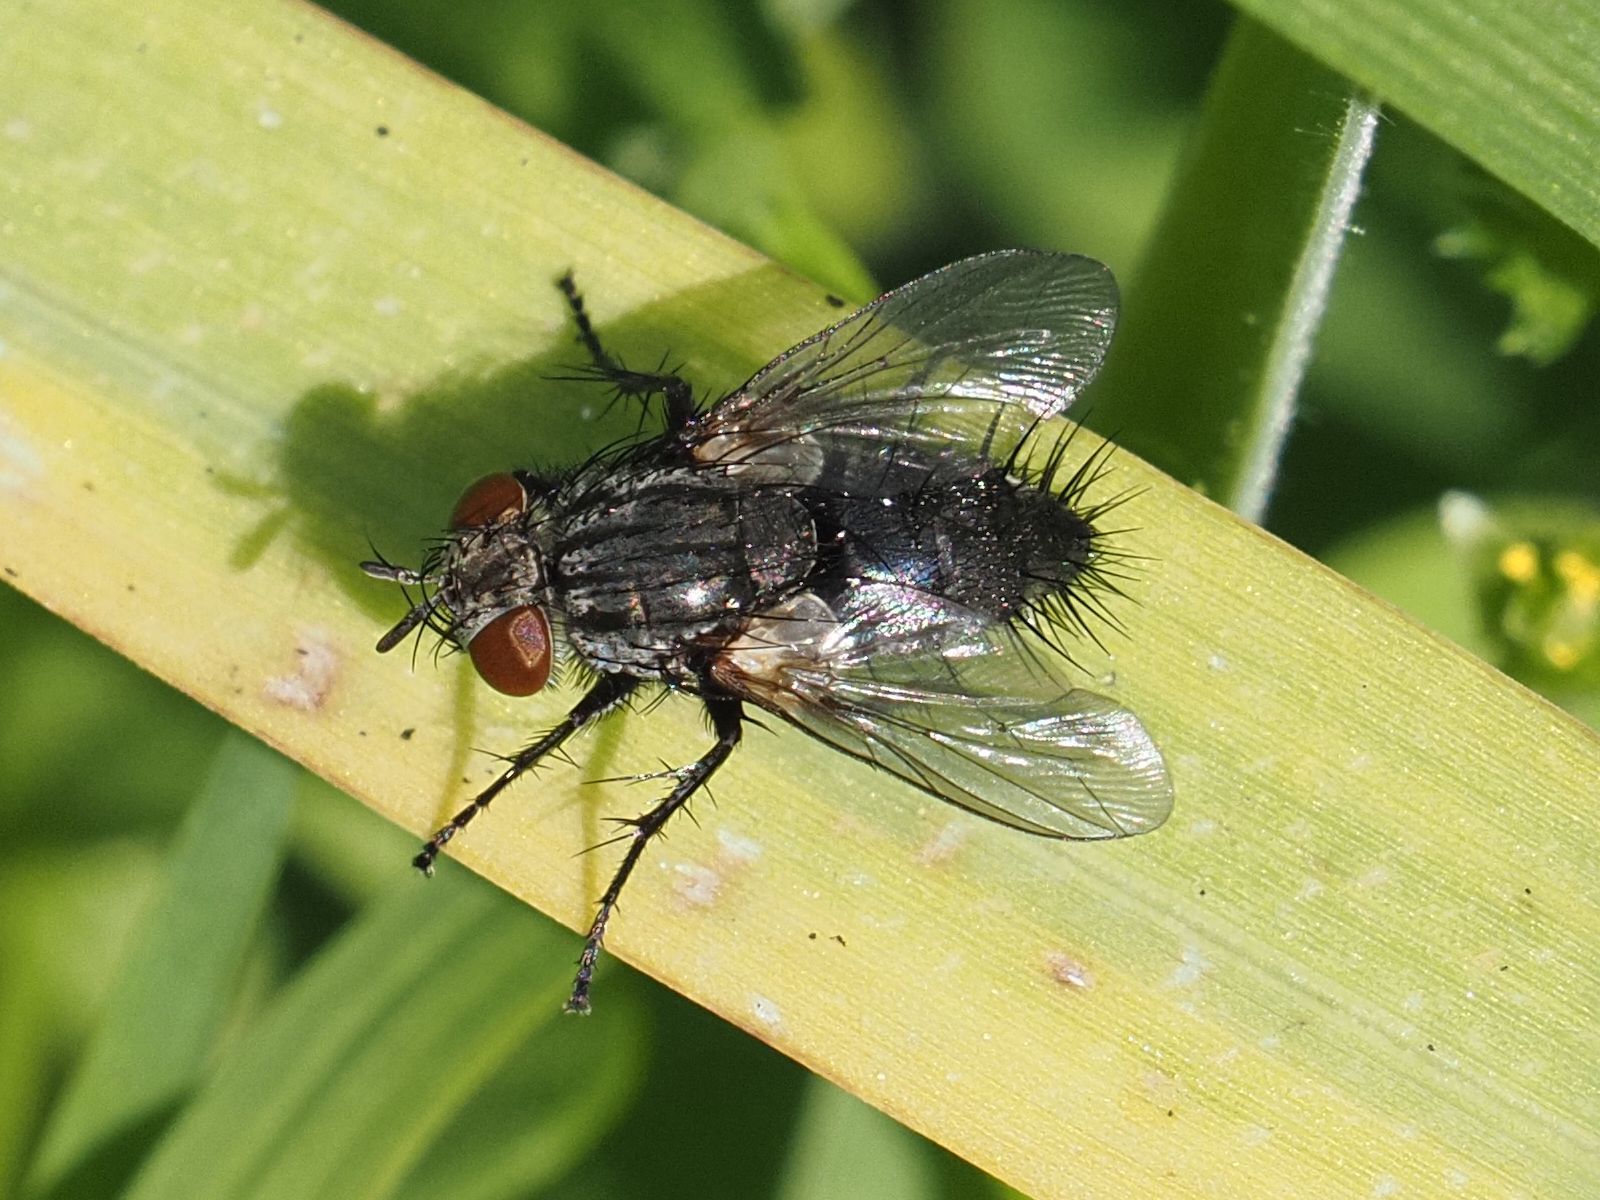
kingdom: Animalia
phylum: Arthropoda
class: Insecta
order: Diptera
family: Tachinidae
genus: Voria
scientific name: Voria ruralis
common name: Parasitic fly
